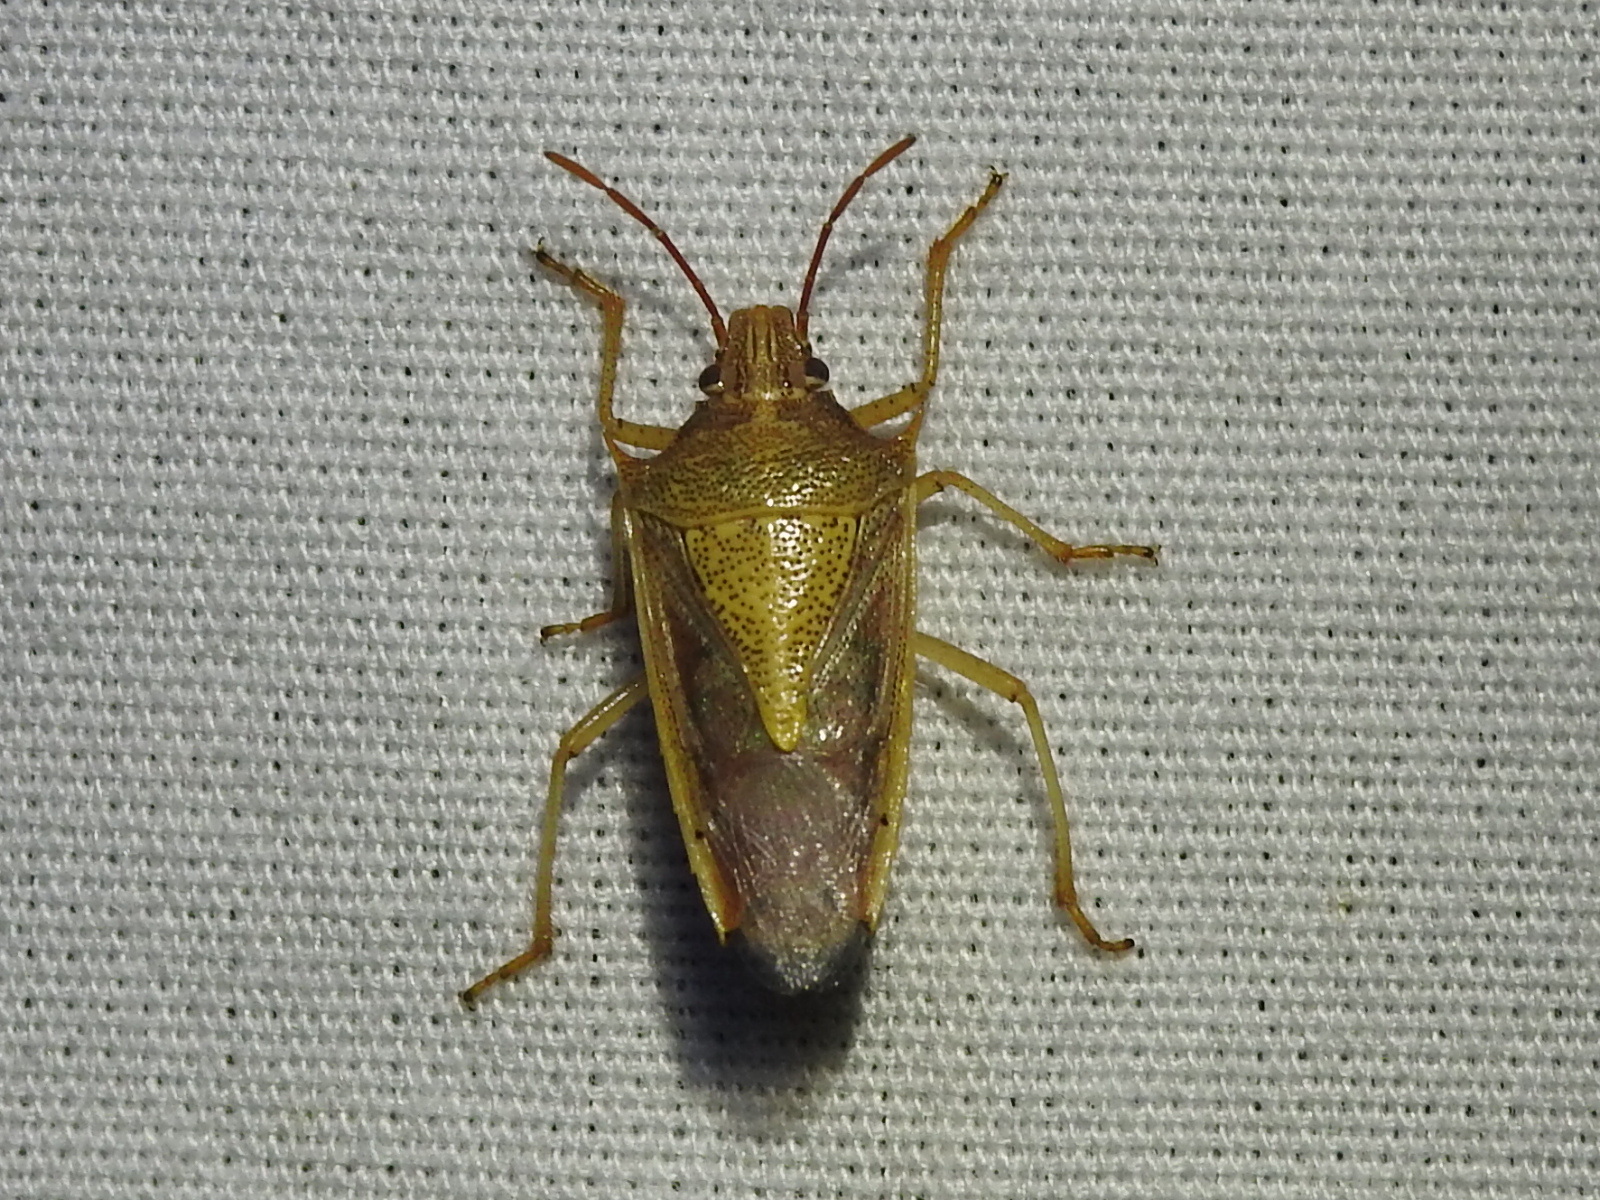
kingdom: Animalia
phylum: Arthropoda
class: Insecta
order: Hemiptera
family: Pentatomidae
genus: Oebalus
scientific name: Oebalus pugnax
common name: Rice stink bug
